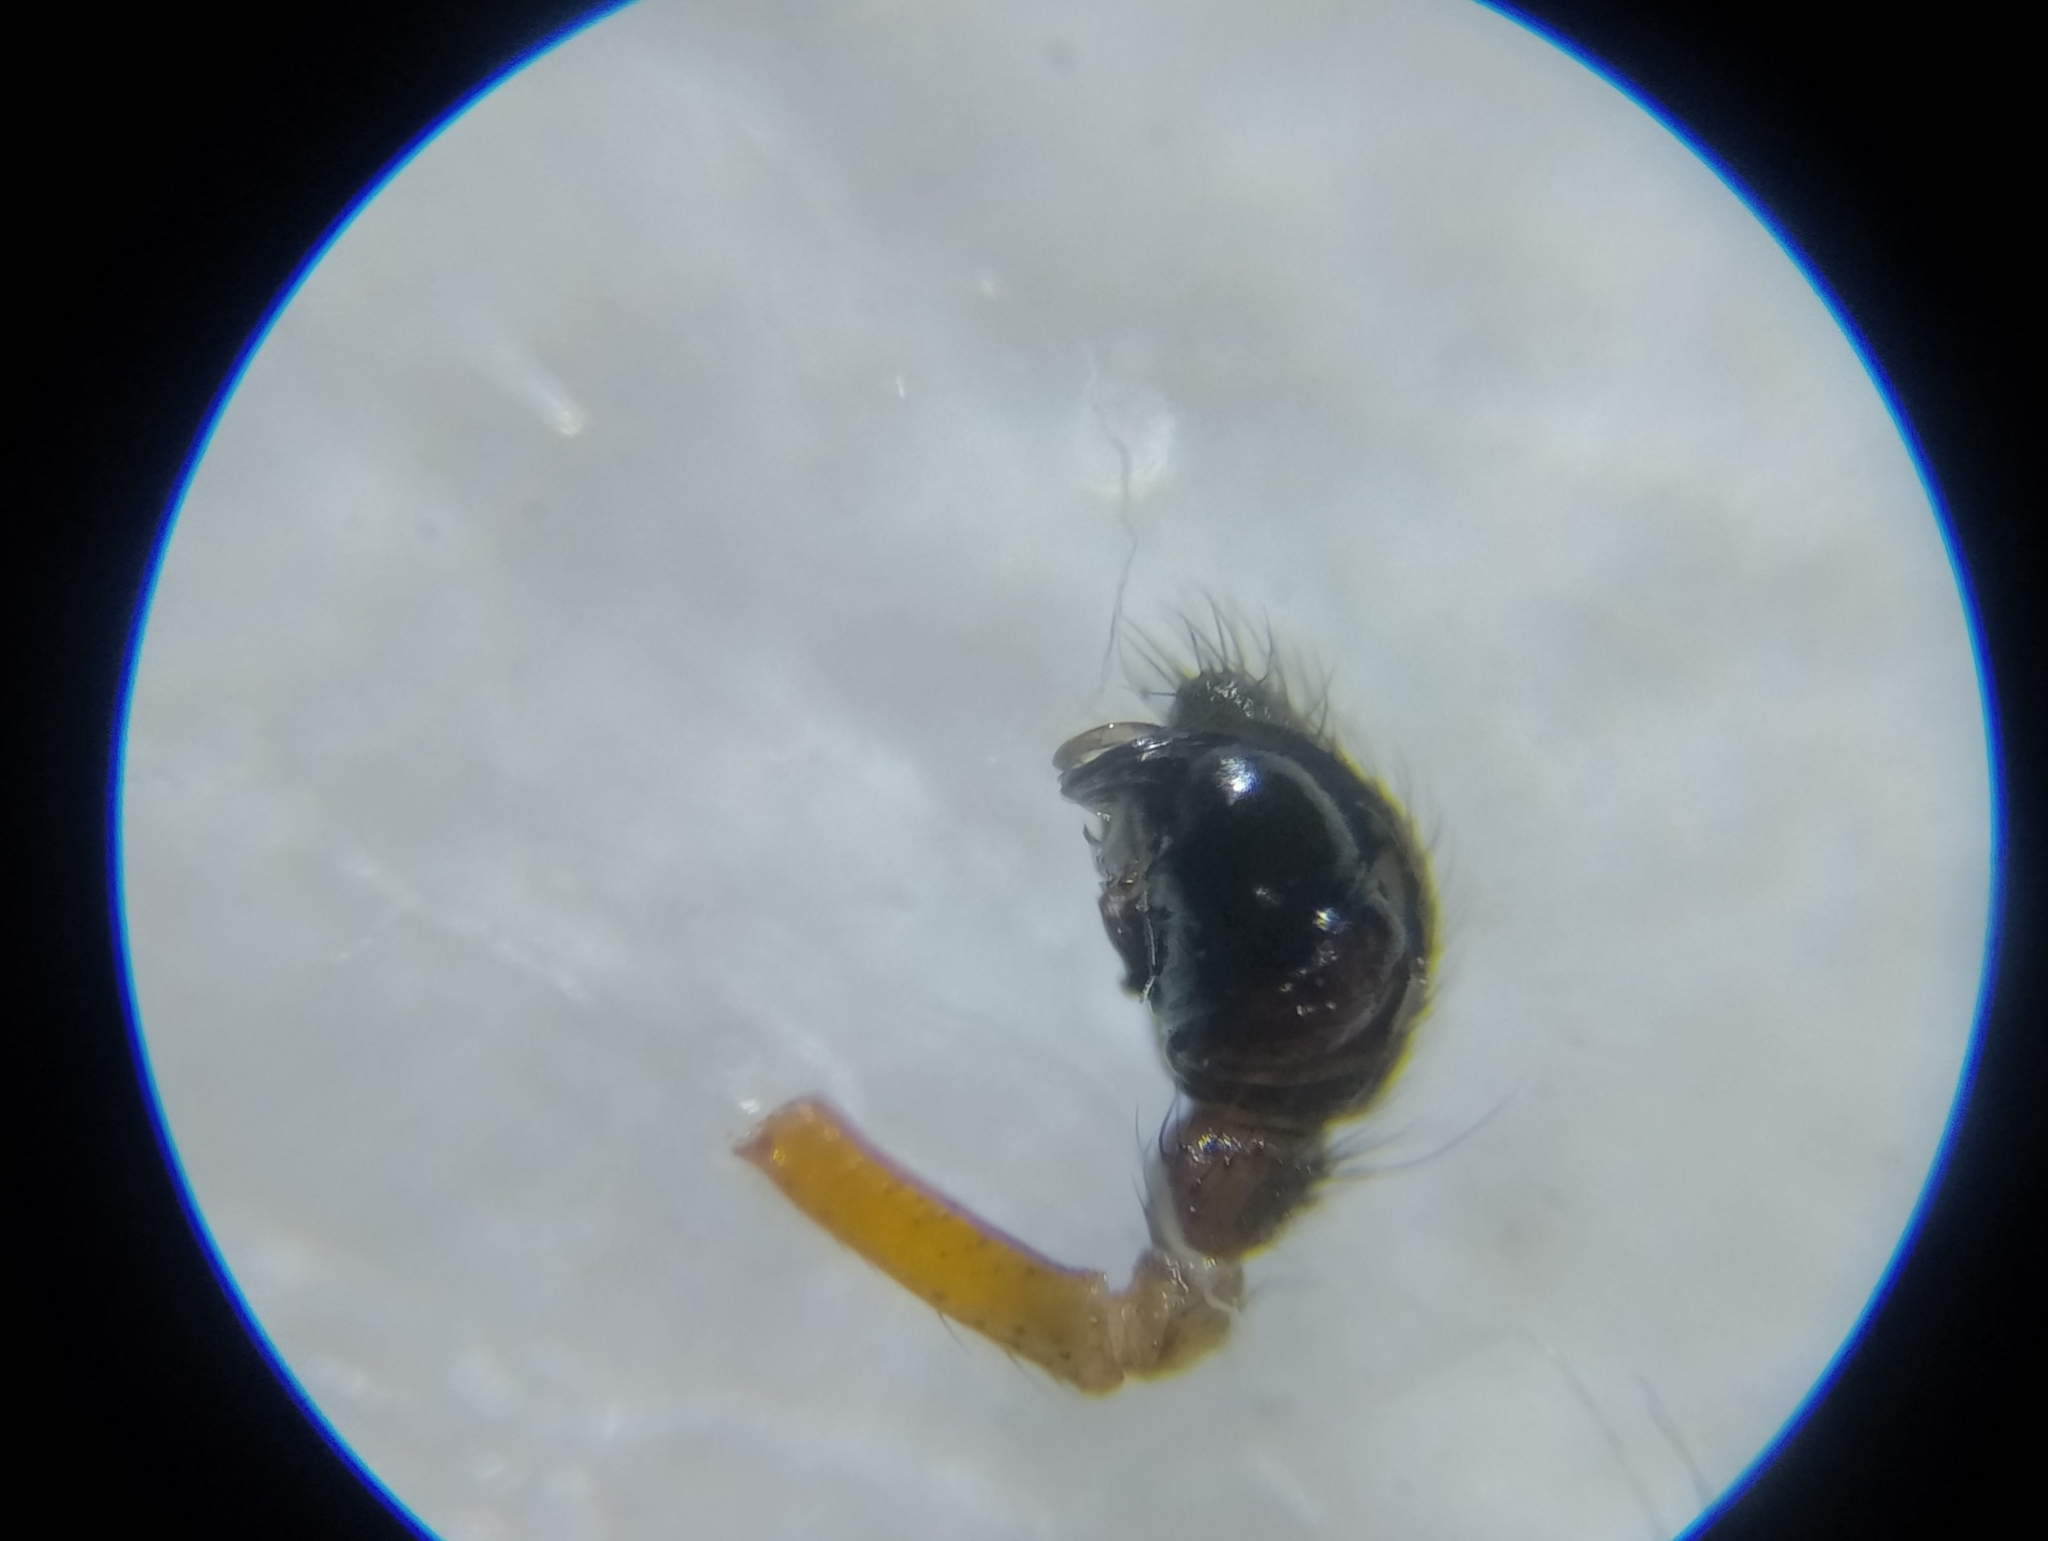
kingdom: Animalia
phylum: Arthropoda
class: Arachnida
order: Araneae
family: Linyphiidae
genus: Linyphia
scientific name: Linyphia hortensis
